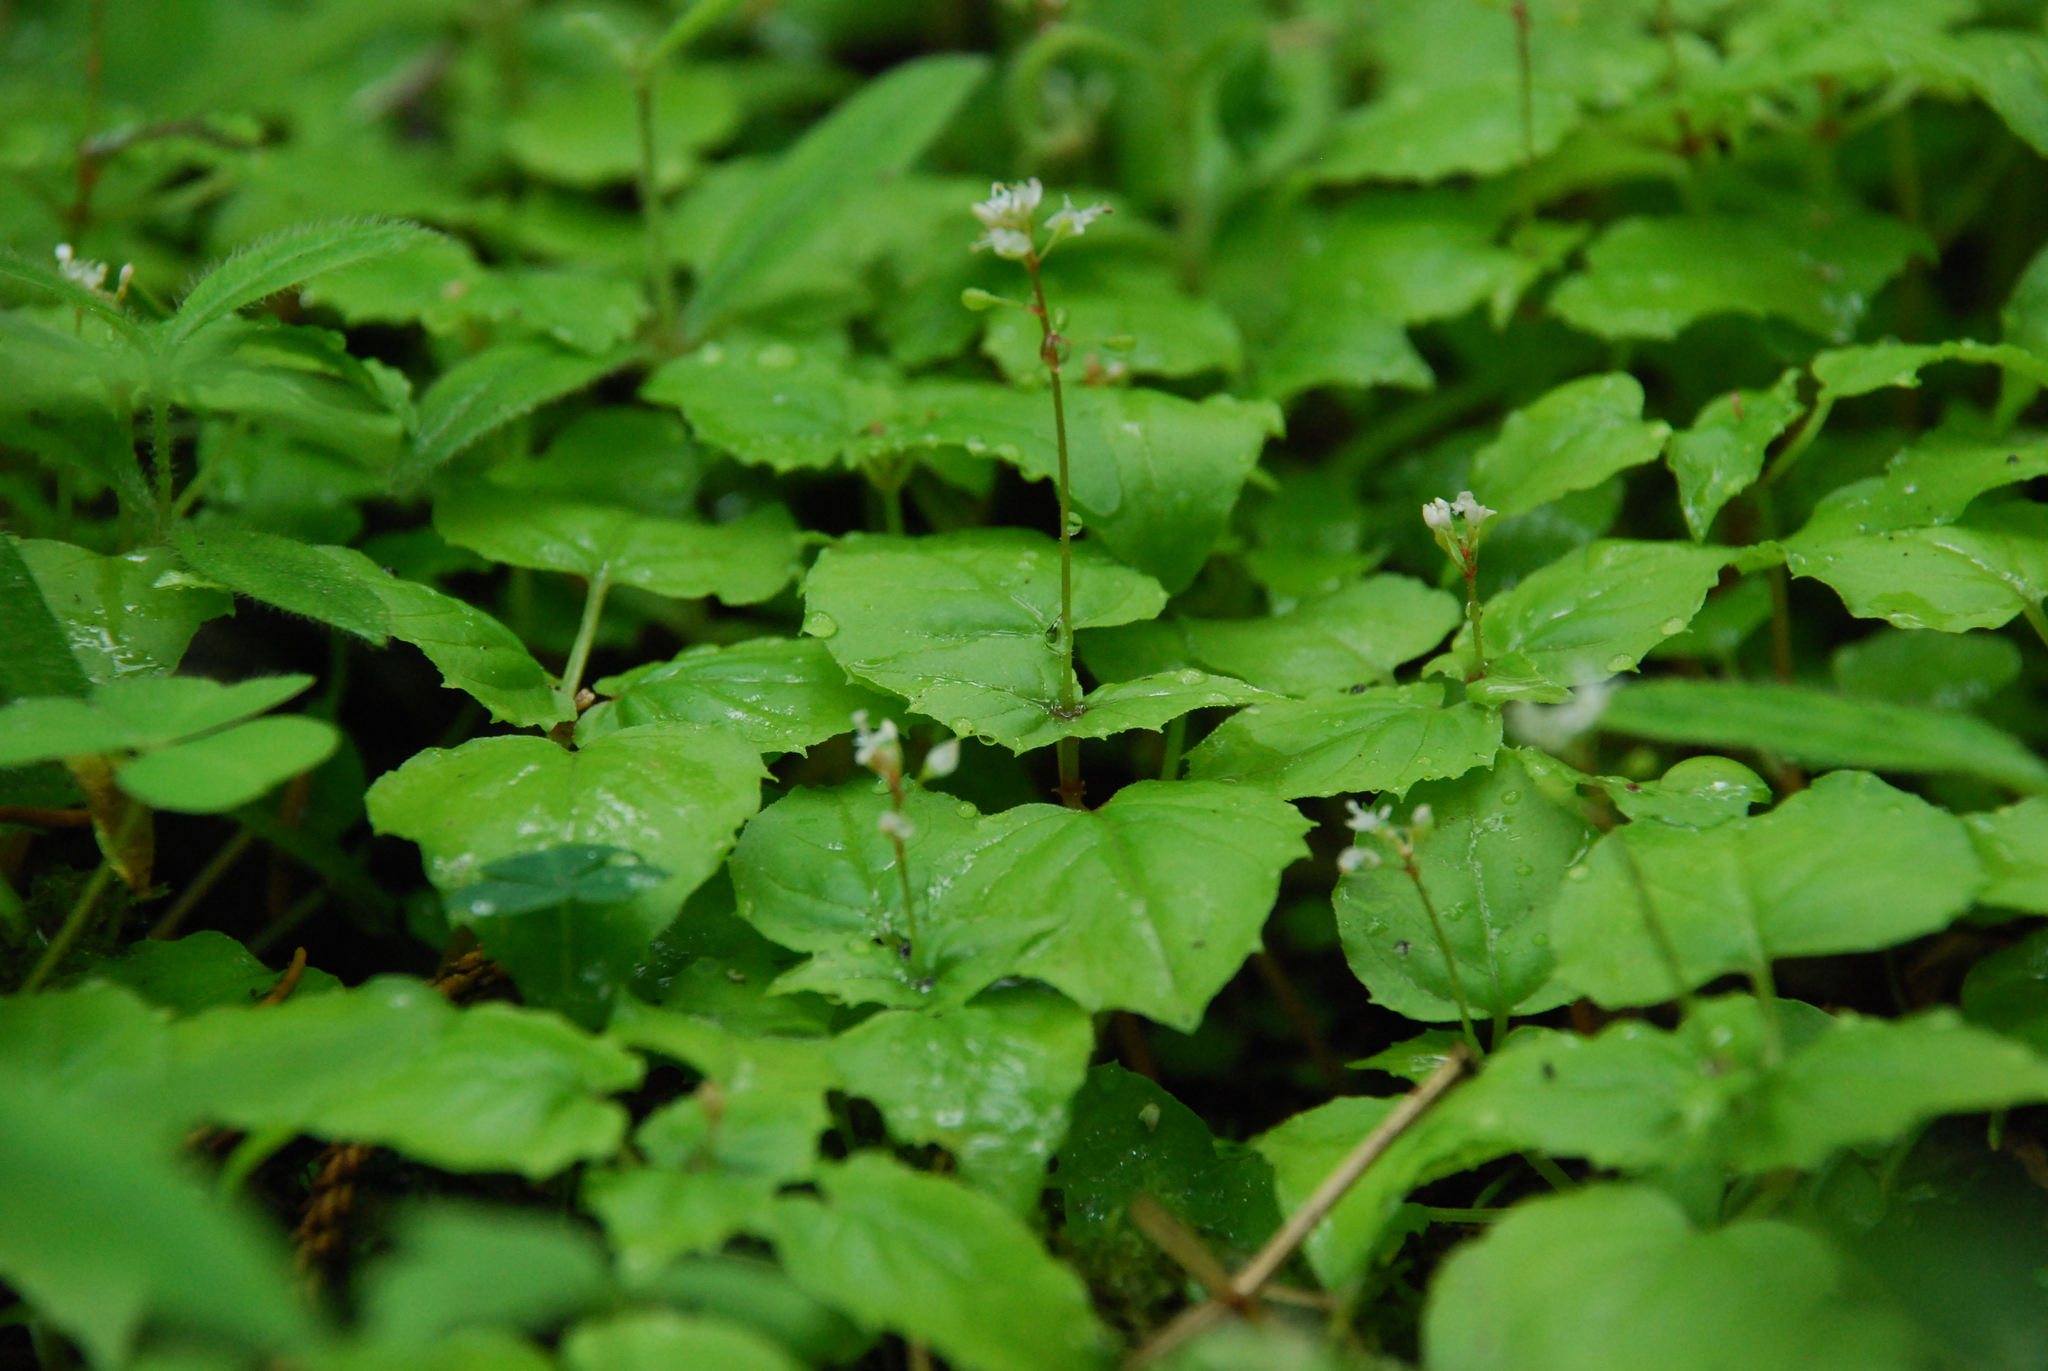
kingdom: Plantae
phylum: Tracheophyta
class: Magnoliopsida
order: Myrtales
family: Onagraceae
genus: Circaea
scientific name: Circaea alpina
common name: Alpine enchanter's-nightshade
